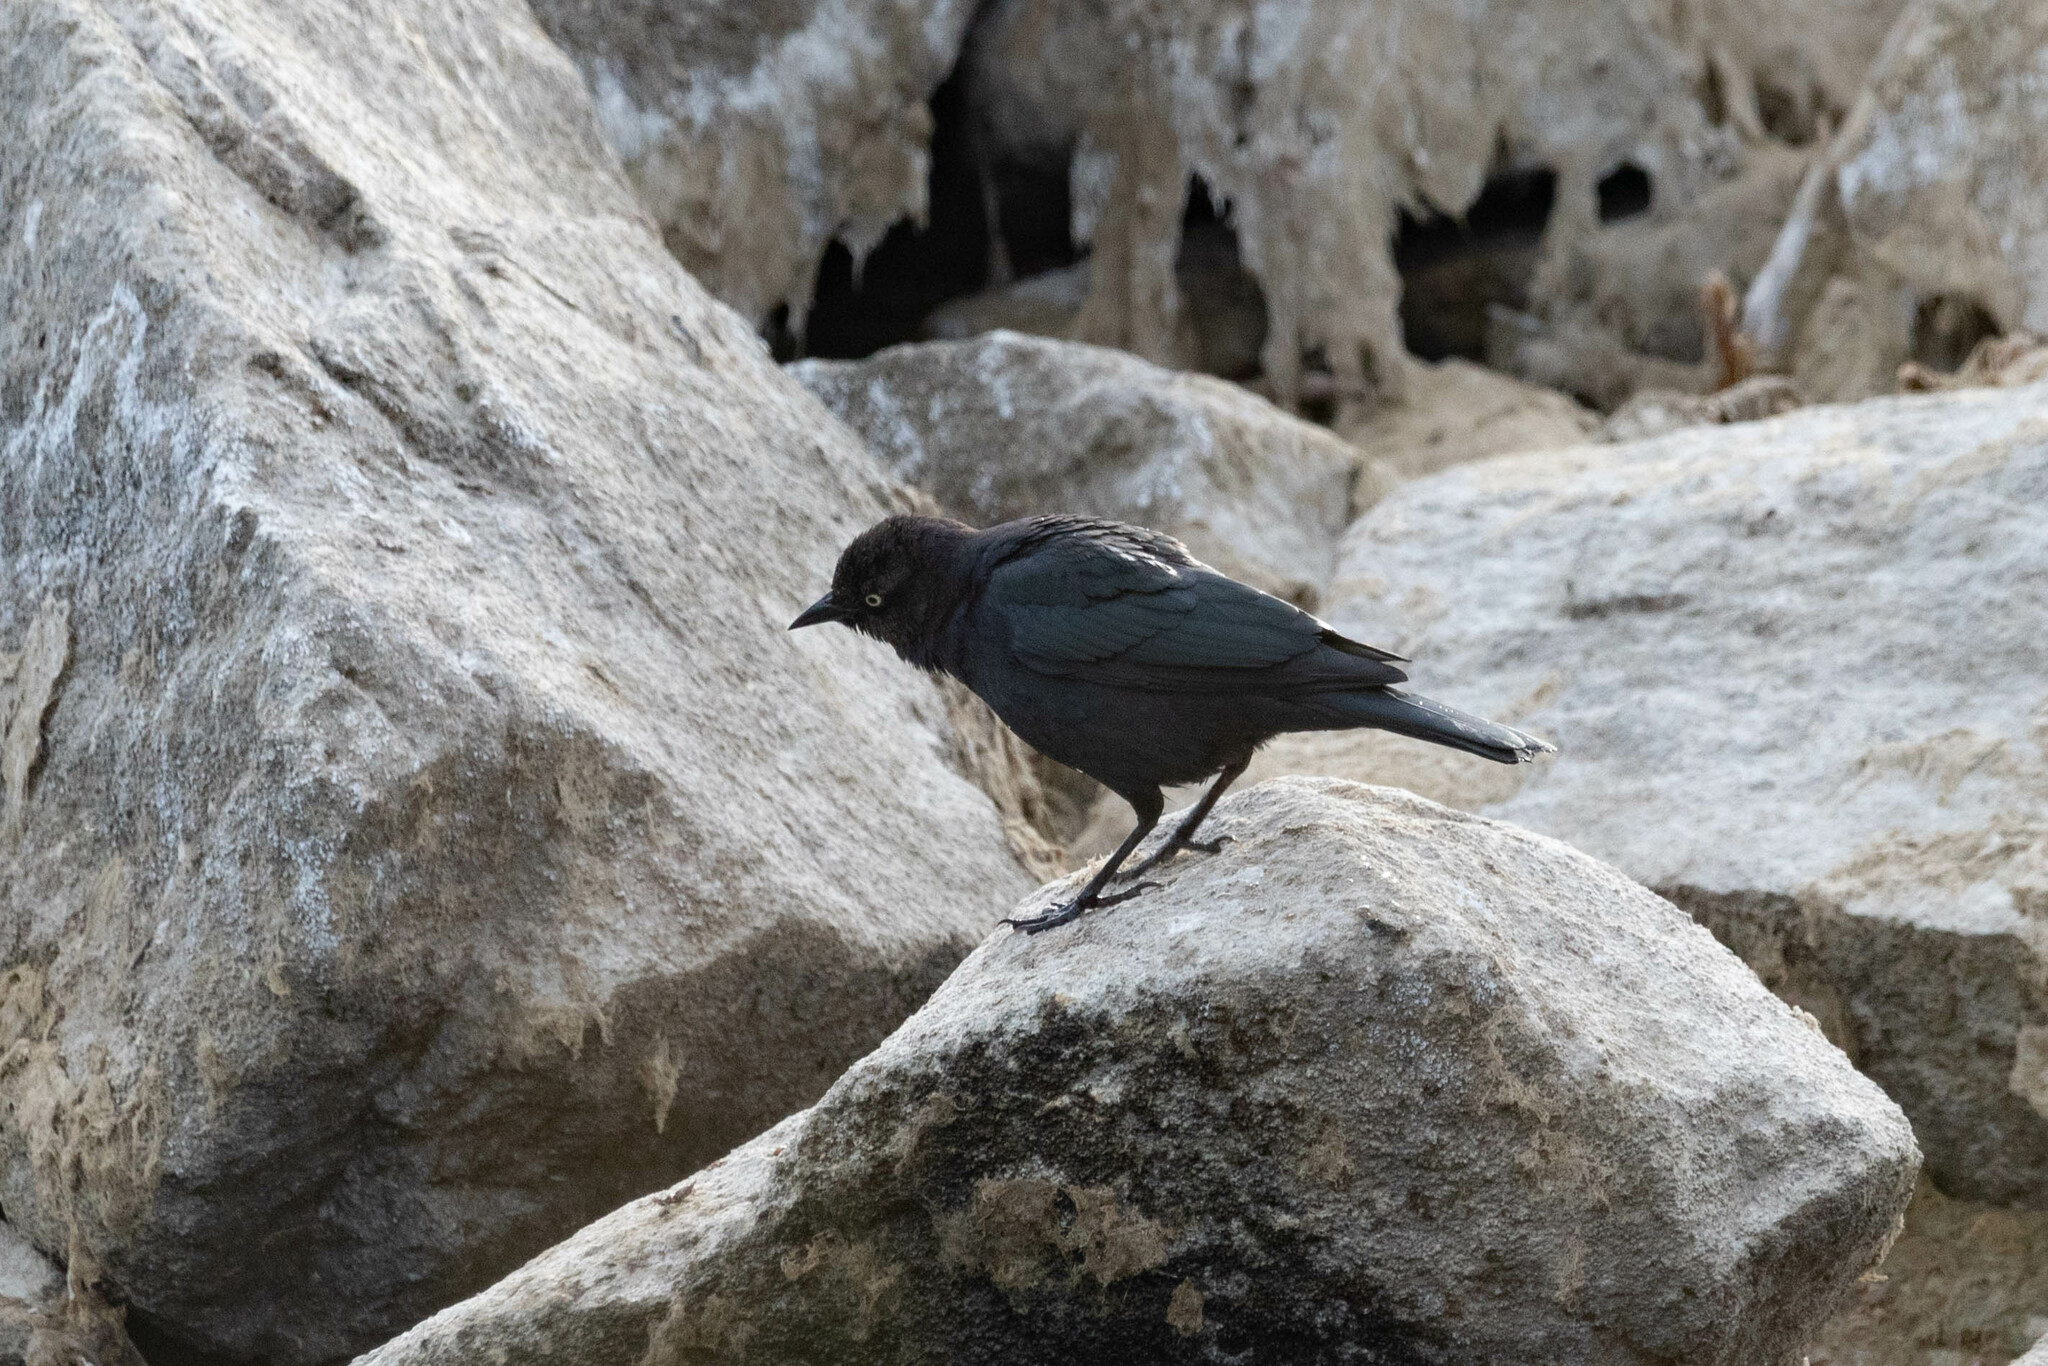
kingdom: Animalia
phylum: Chordata
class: Aves
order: Passeriformes
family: Icteridae
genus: Euphagus
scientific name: Euphagus cyanocephalus
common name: Brewer's blackbird
